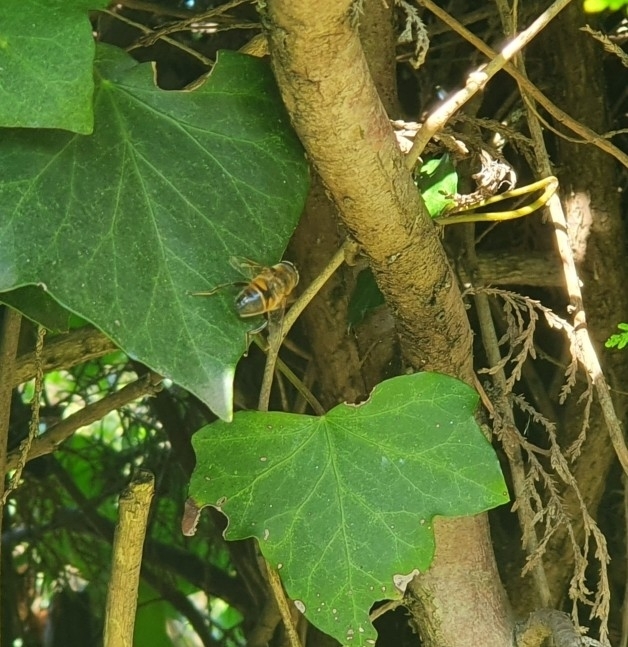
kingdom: Animalia
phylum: Arthropoda
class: Insecta
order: Diptera
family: Syrphidae
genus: Eristalis
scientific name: Eristalis tenax
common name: Drone fly
